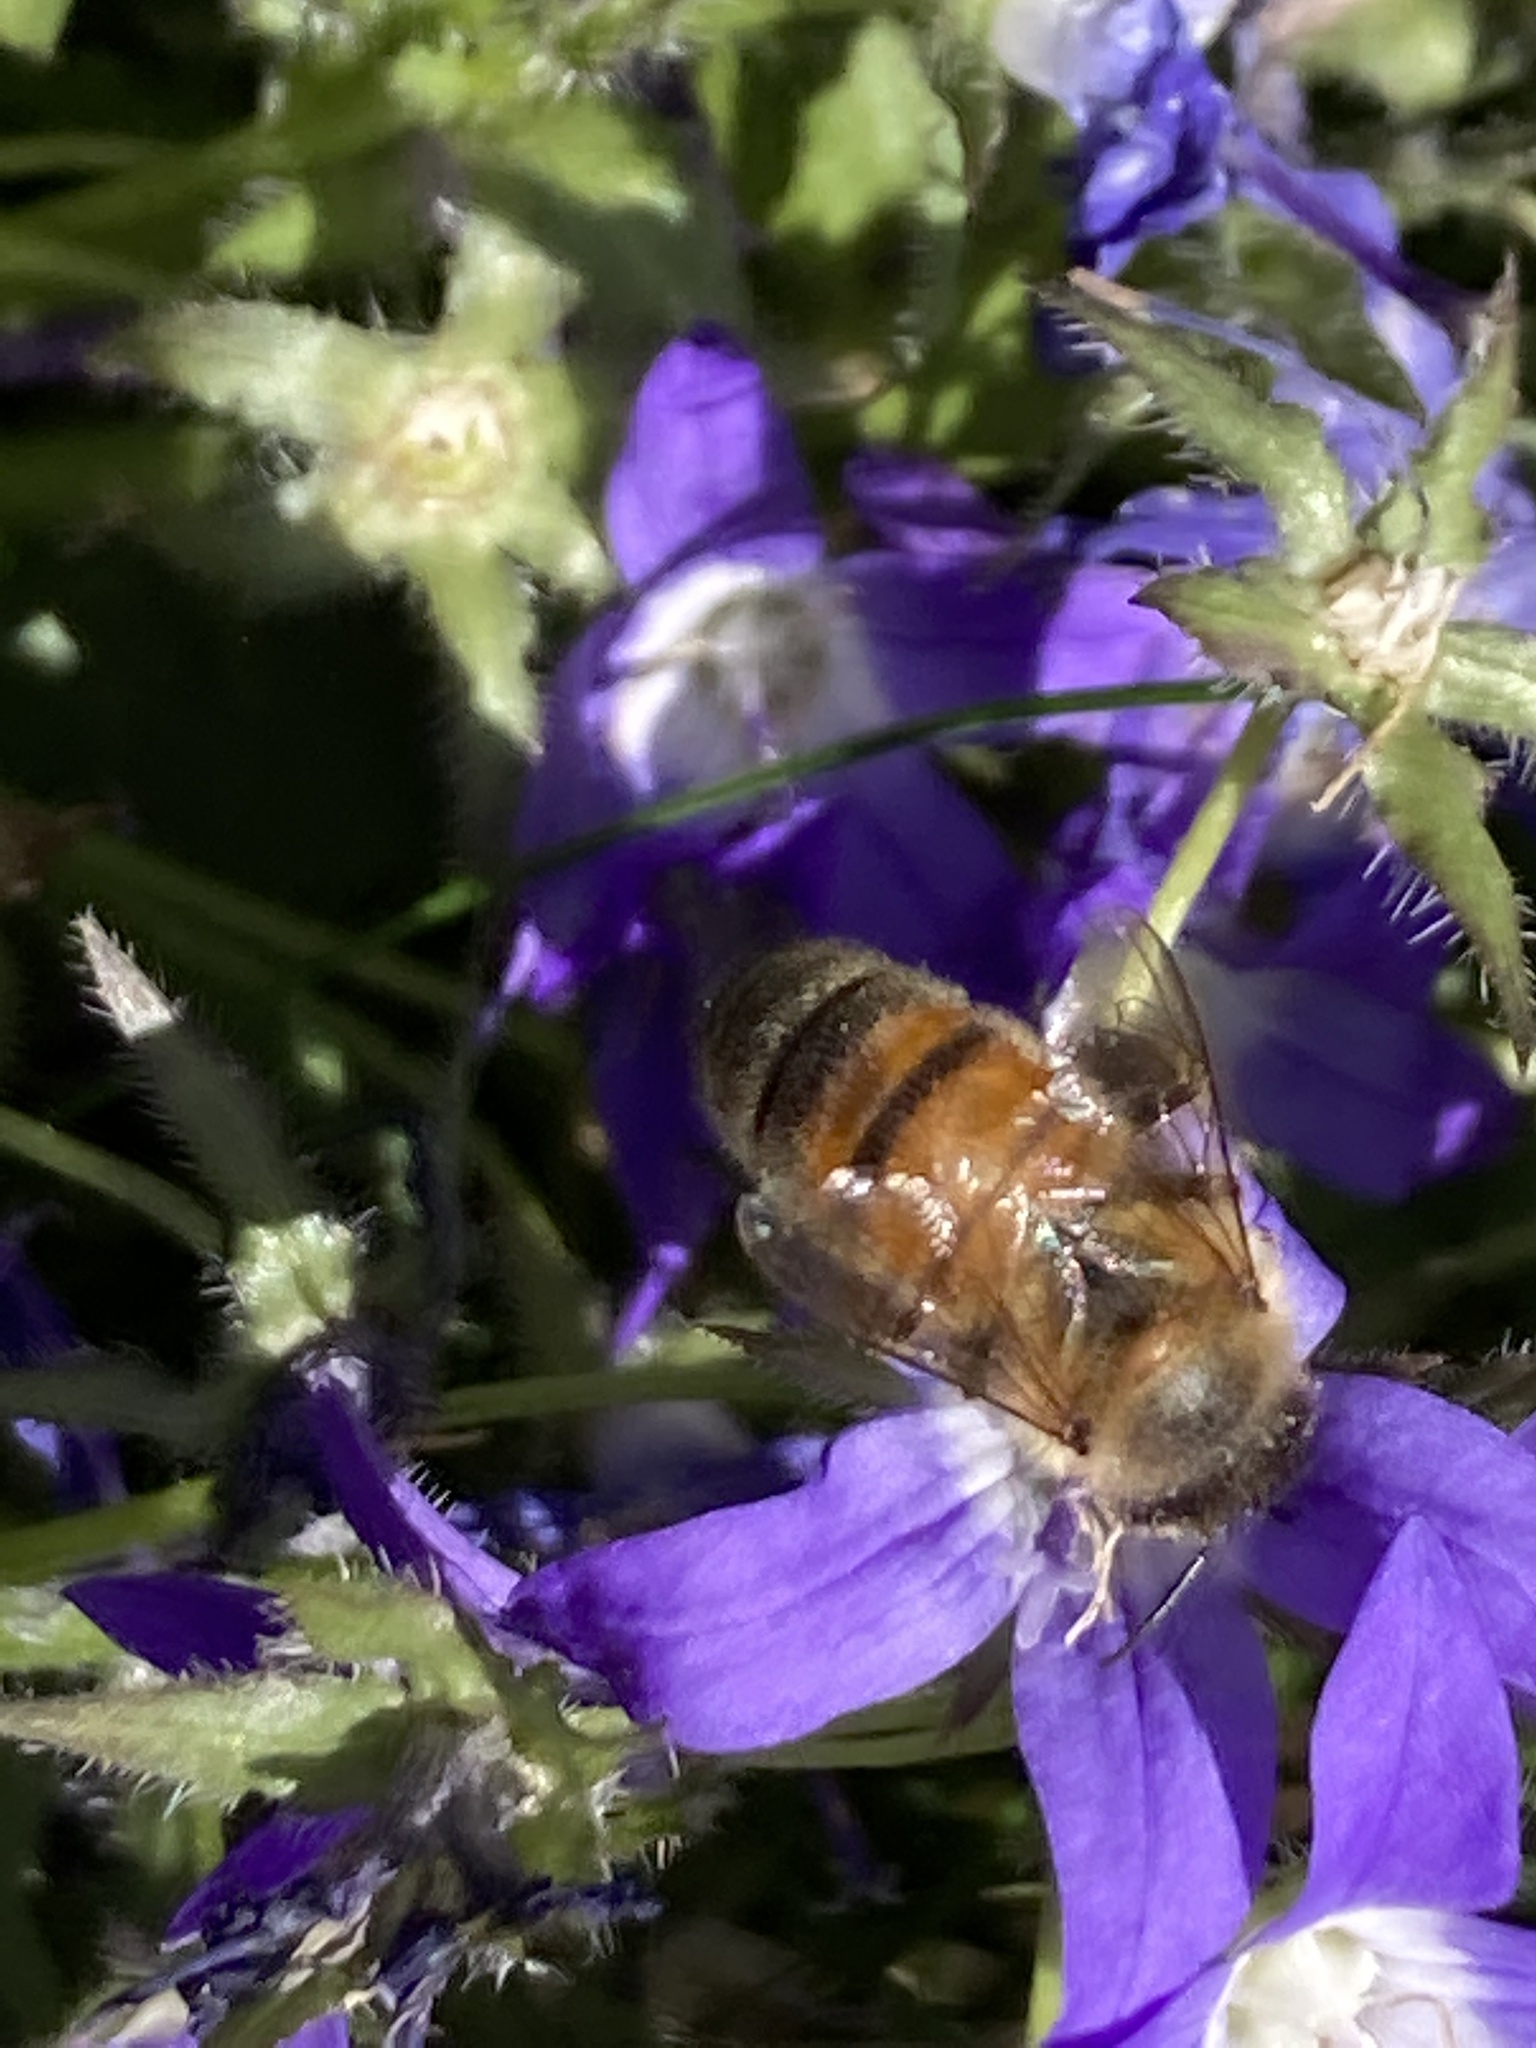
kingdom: Animalia
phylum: Arthropoda
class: Insecta
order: Hymenoptera
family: Apidae
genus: Apis
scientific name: Apis mellifera
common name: Honey bee
